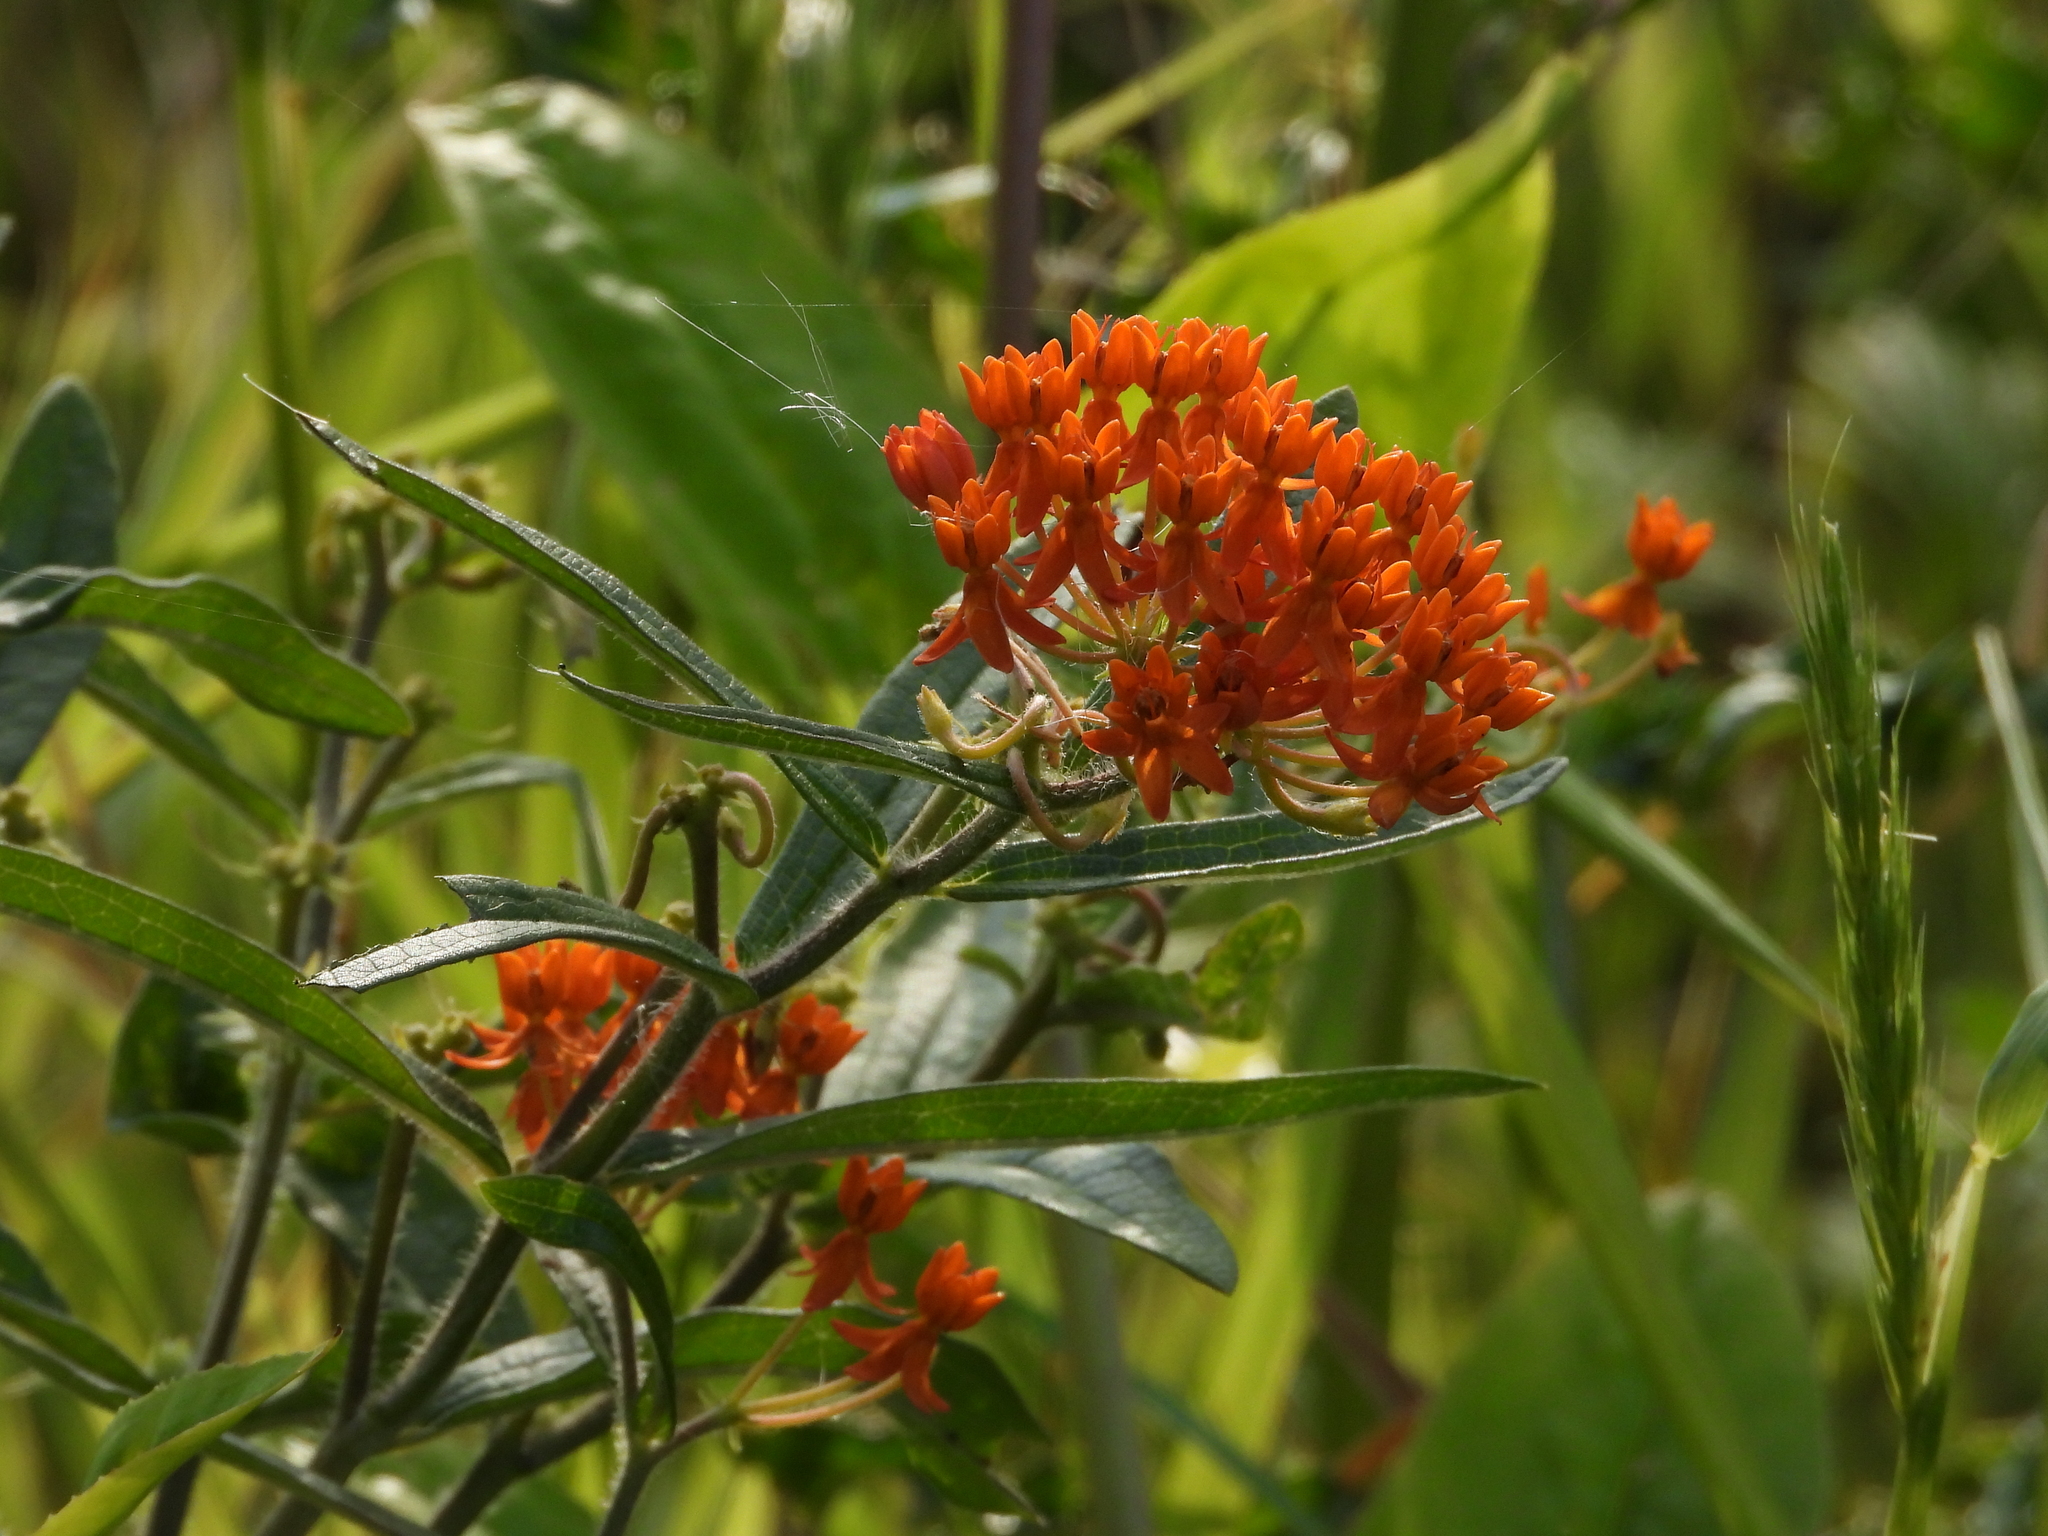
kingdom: Plantae
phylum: Tracheophyta
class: Magnoliopsida
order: Gentianales
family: Apocynaceae
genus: Asclepias
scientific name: Asclepias tuberosa
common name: Butterfly milkweed
